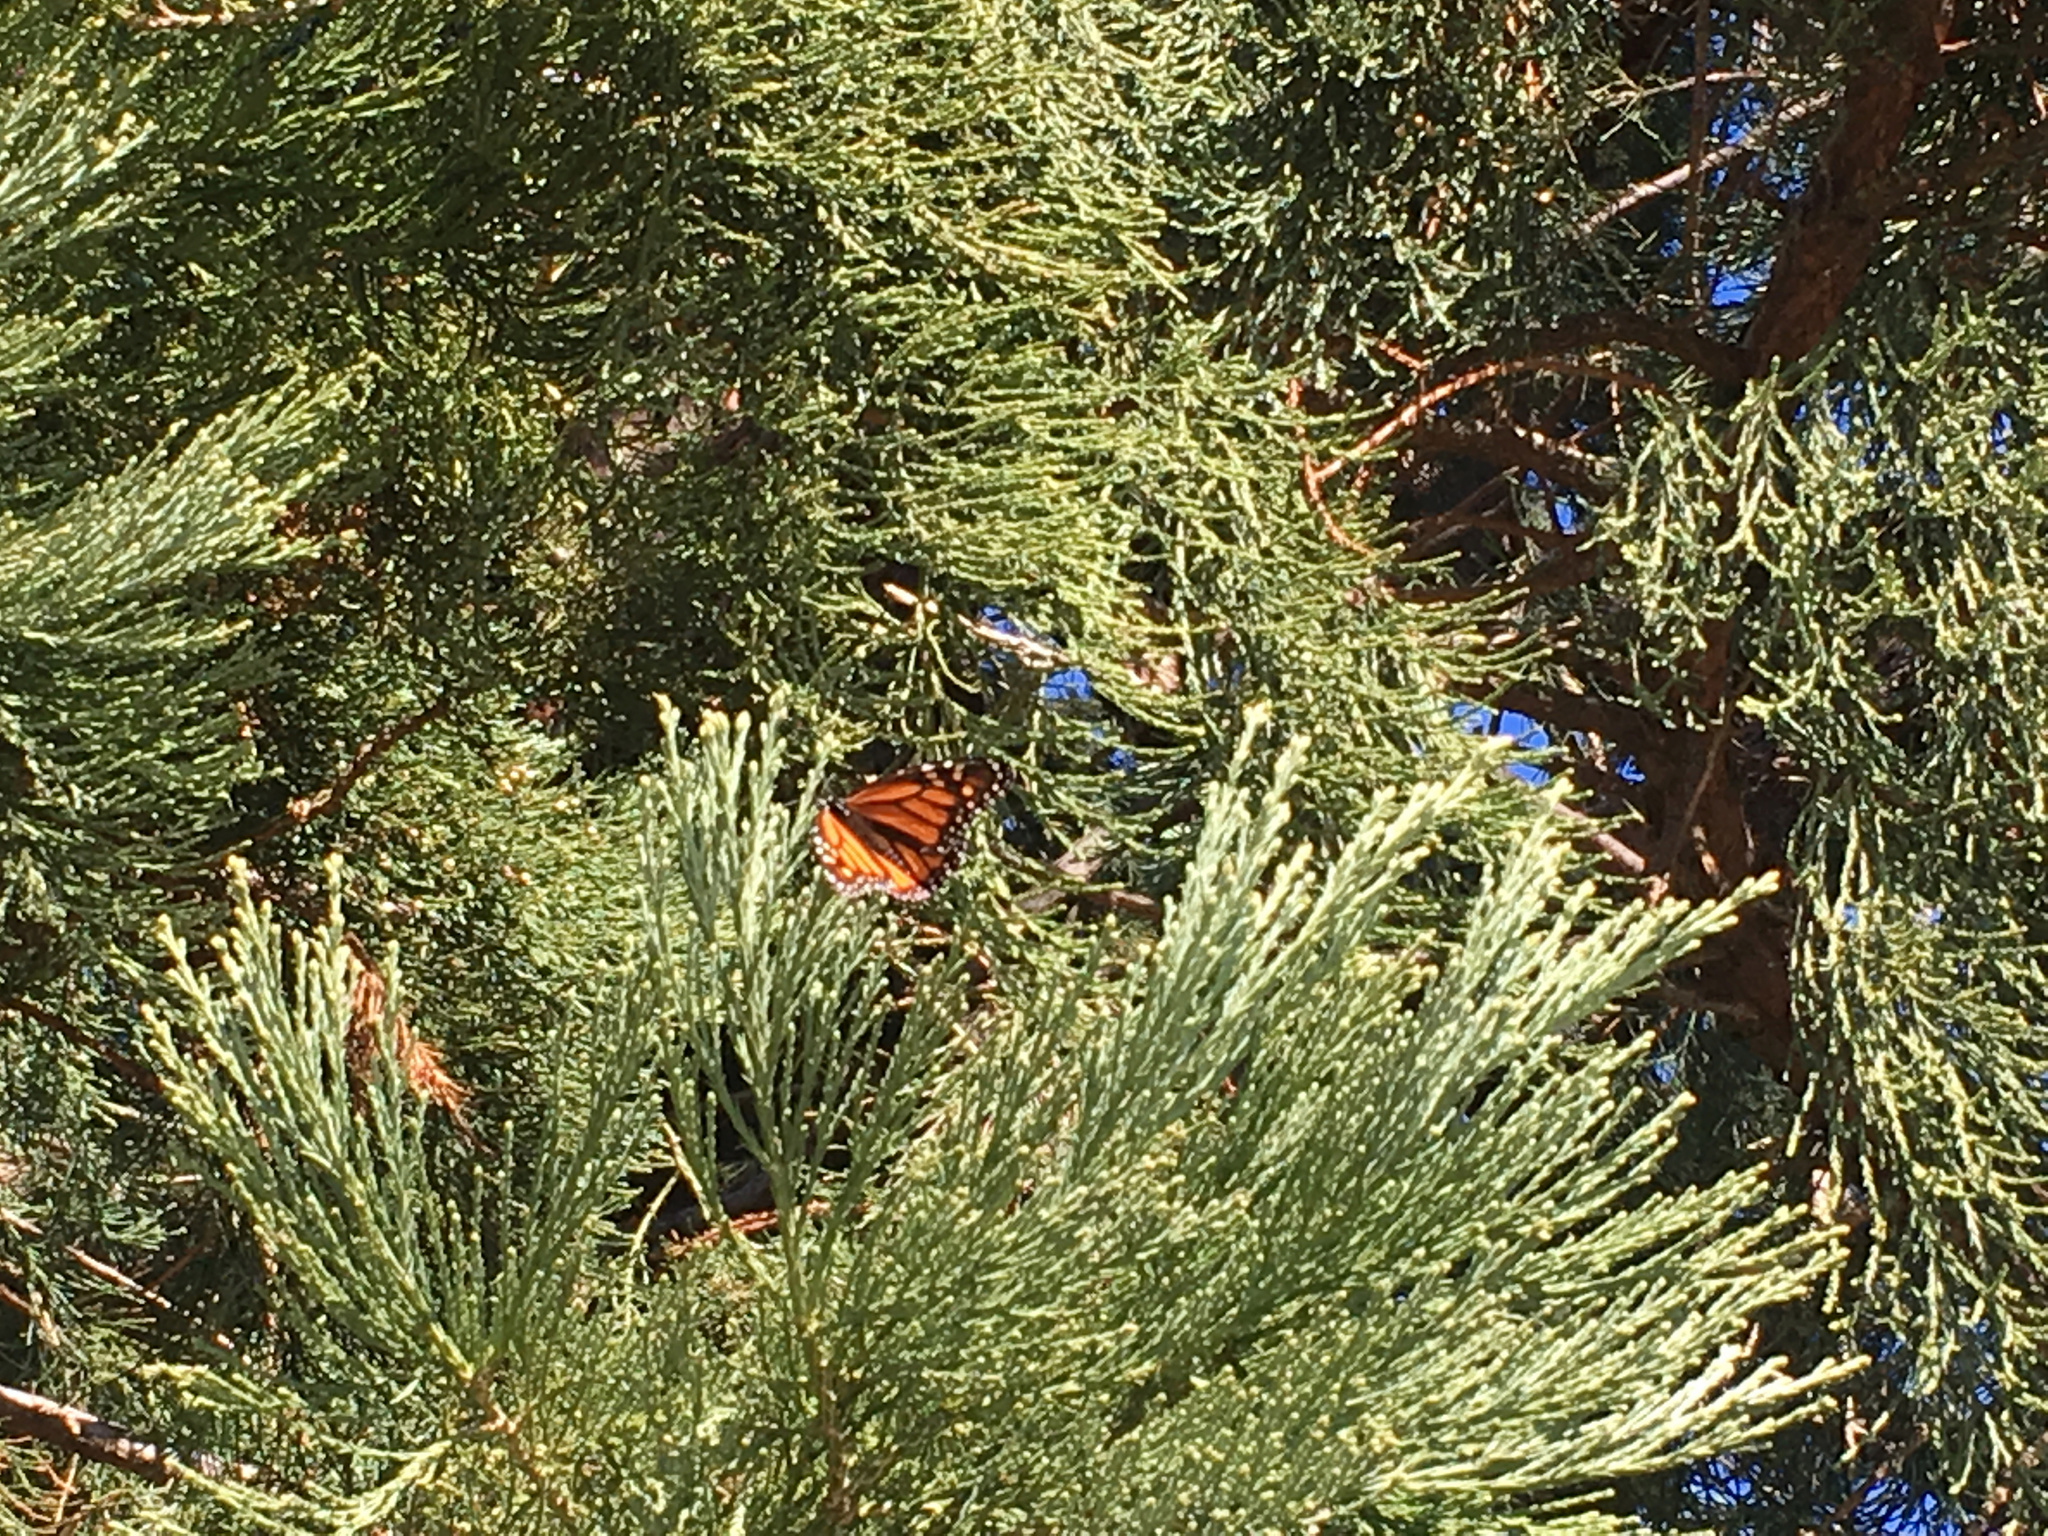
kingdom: Animalia
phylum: Arthropoda
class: Insecta
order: Lepidoptera
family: Nymphalidae
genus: Danaus
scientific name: Danaus plexippus
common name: Monarch
